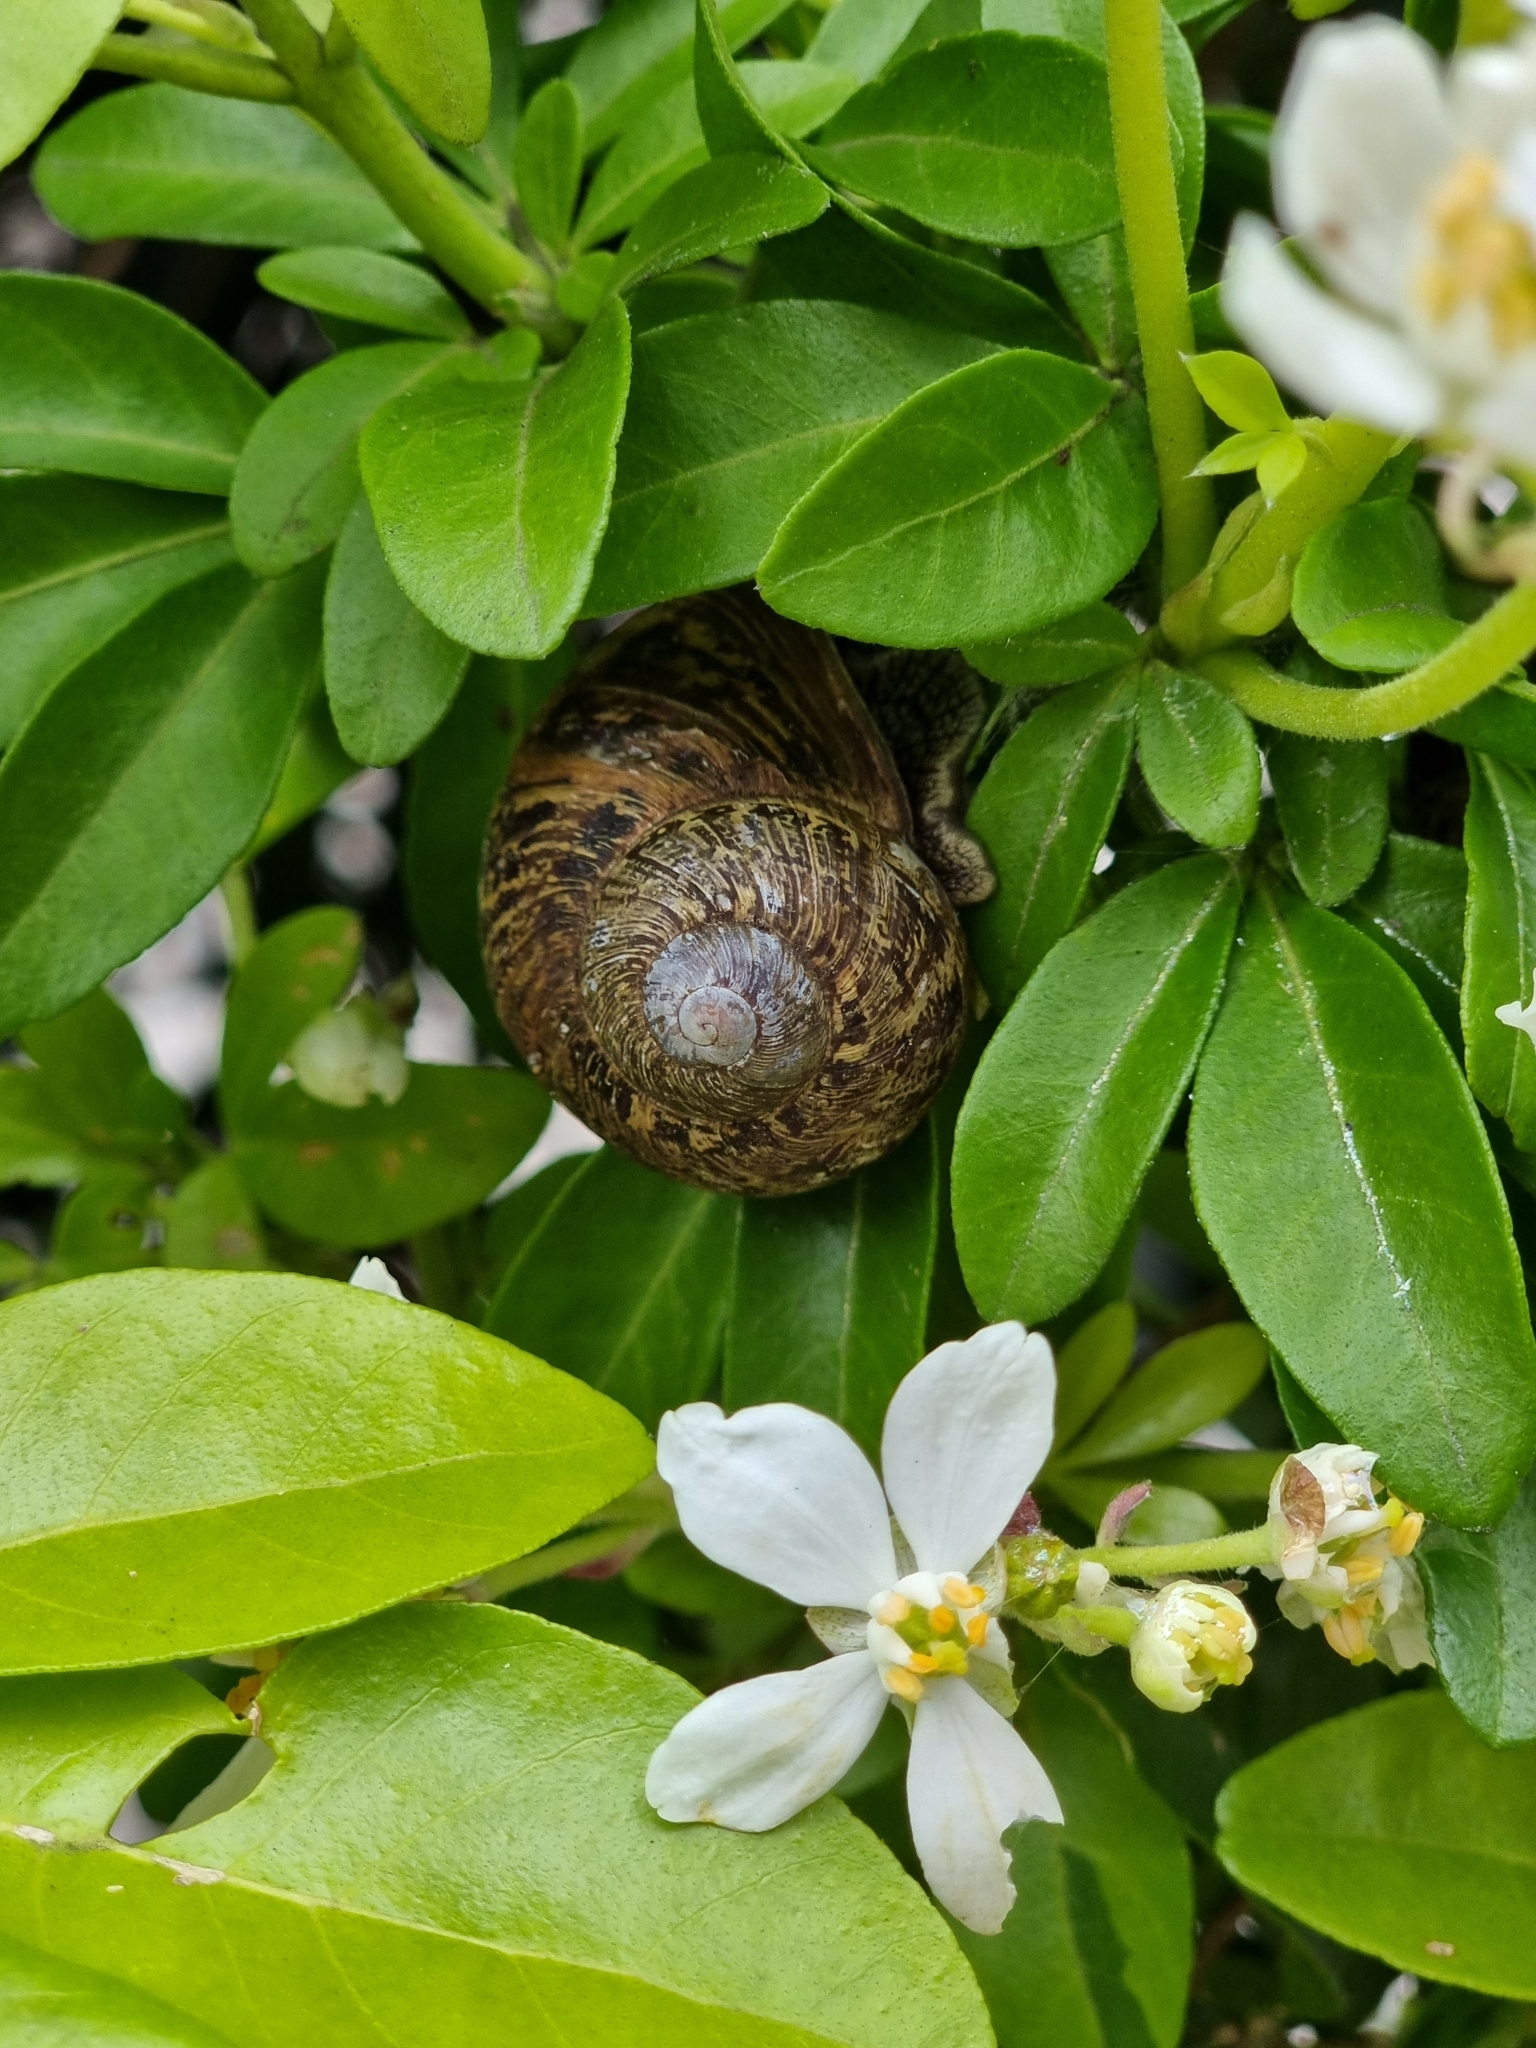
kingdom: Animalia
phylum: Mollusca
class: Gastropoda
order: Stylommatophora
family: Helicidae
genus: Cornu
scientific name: Cornu aspersum
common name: Brown garden snail
